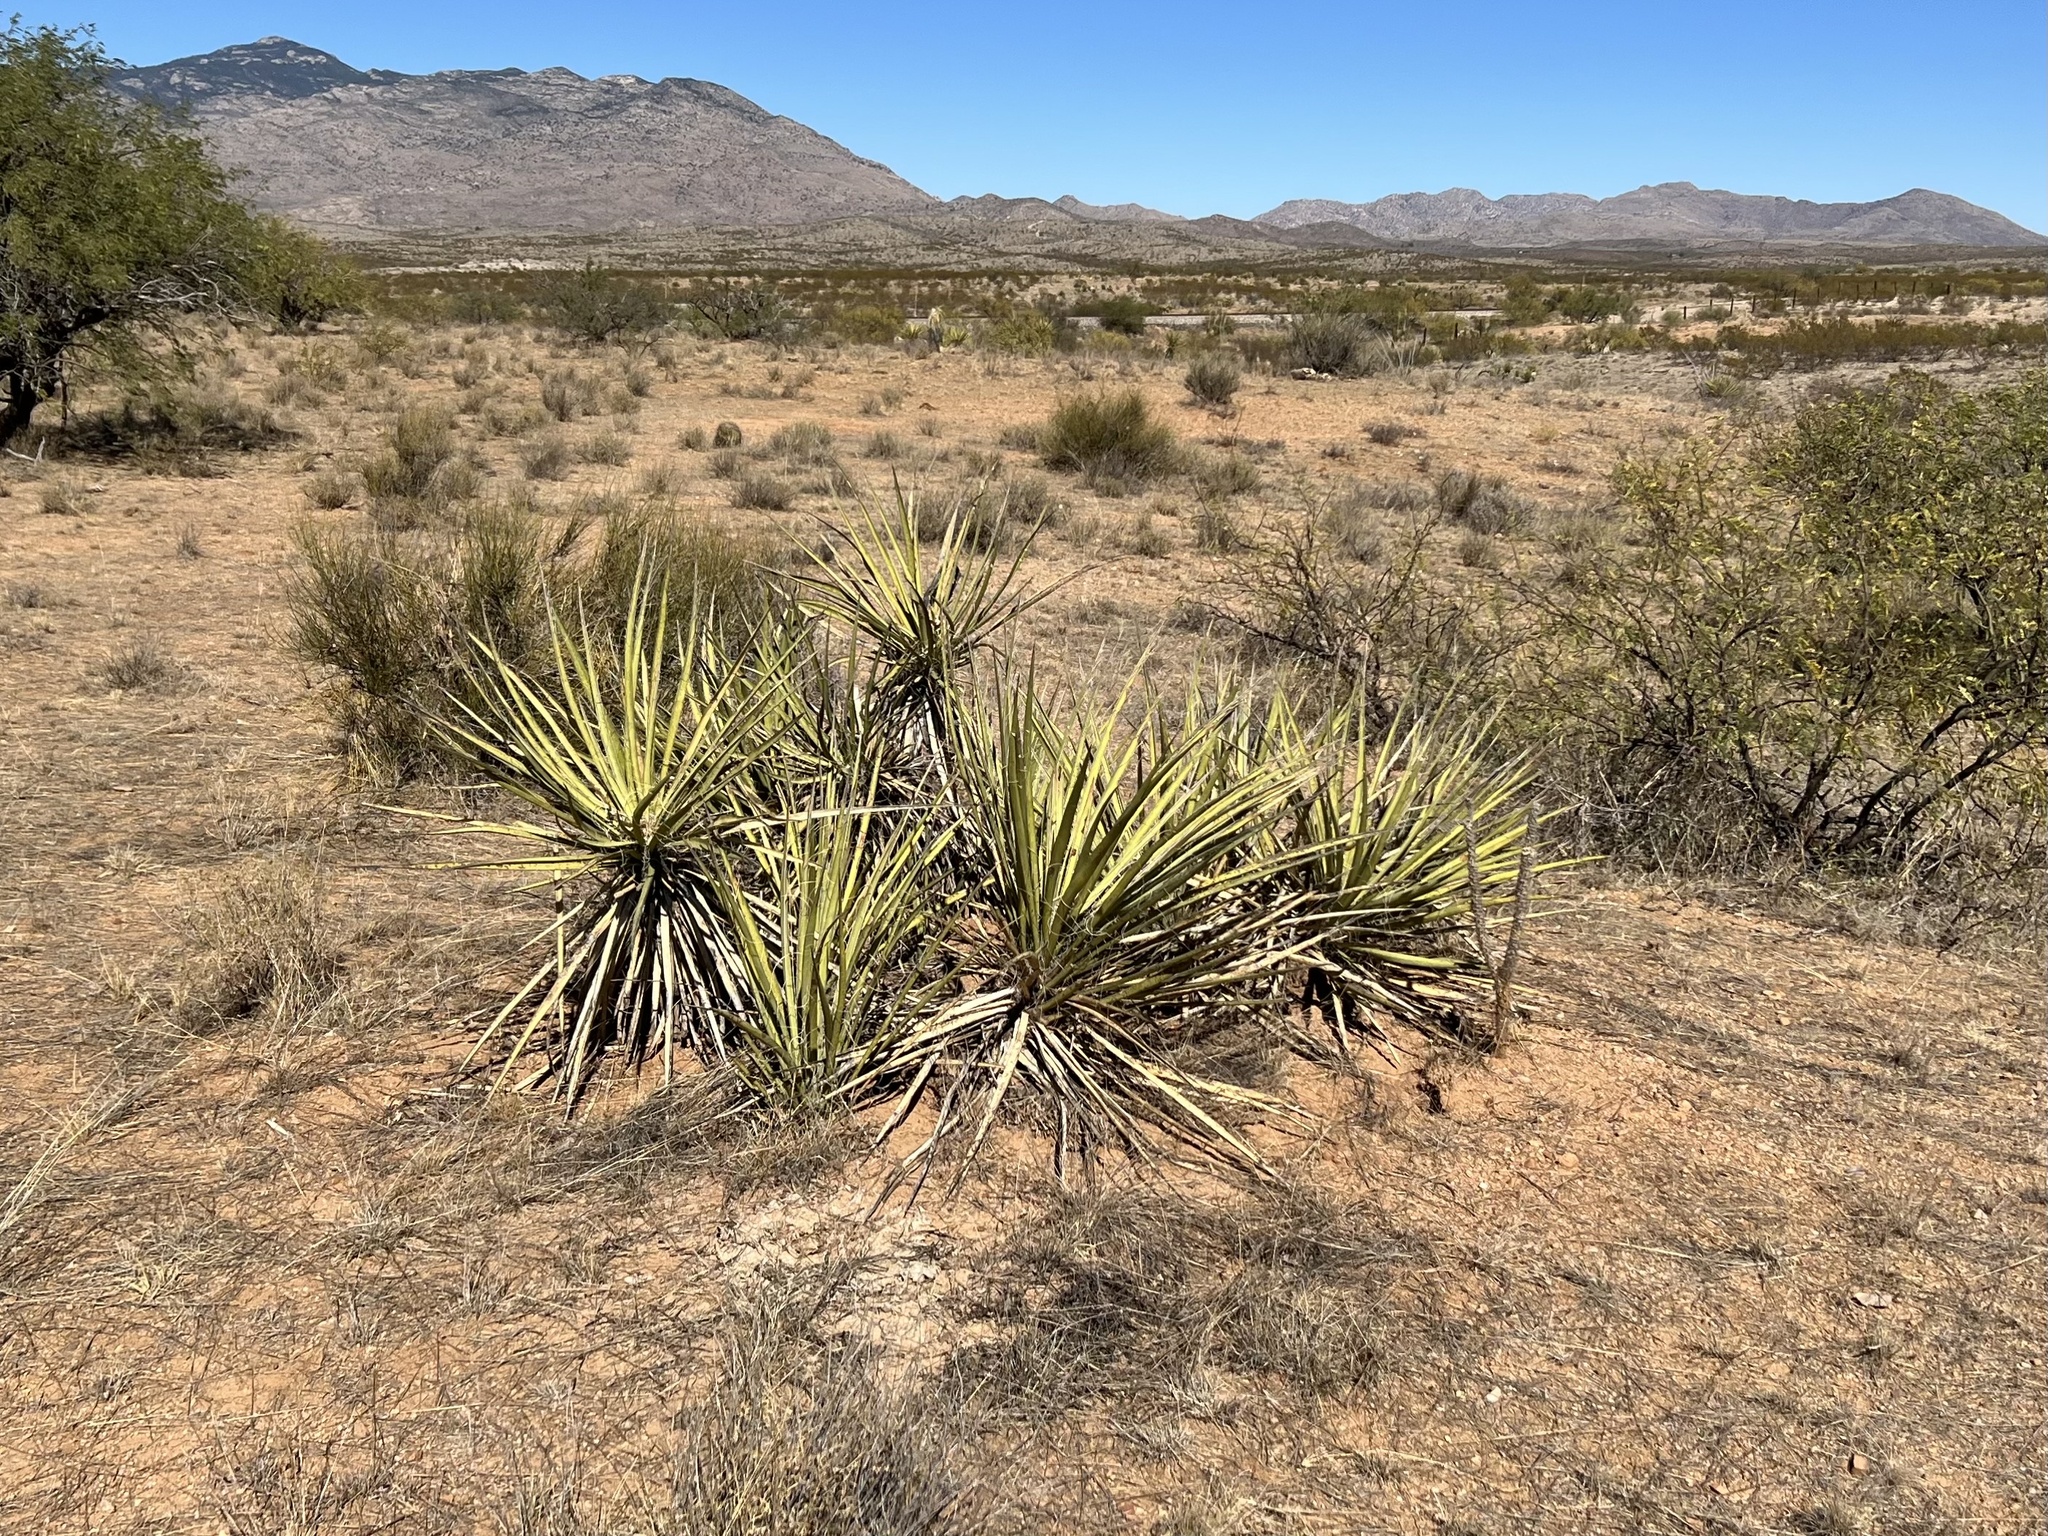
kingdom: Plantae
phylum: Tracheophyta
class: Liliopsida
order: Asparagales
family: Asparagaceae
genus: Yucca
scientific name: Yucca baccata
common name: Banana yucca
